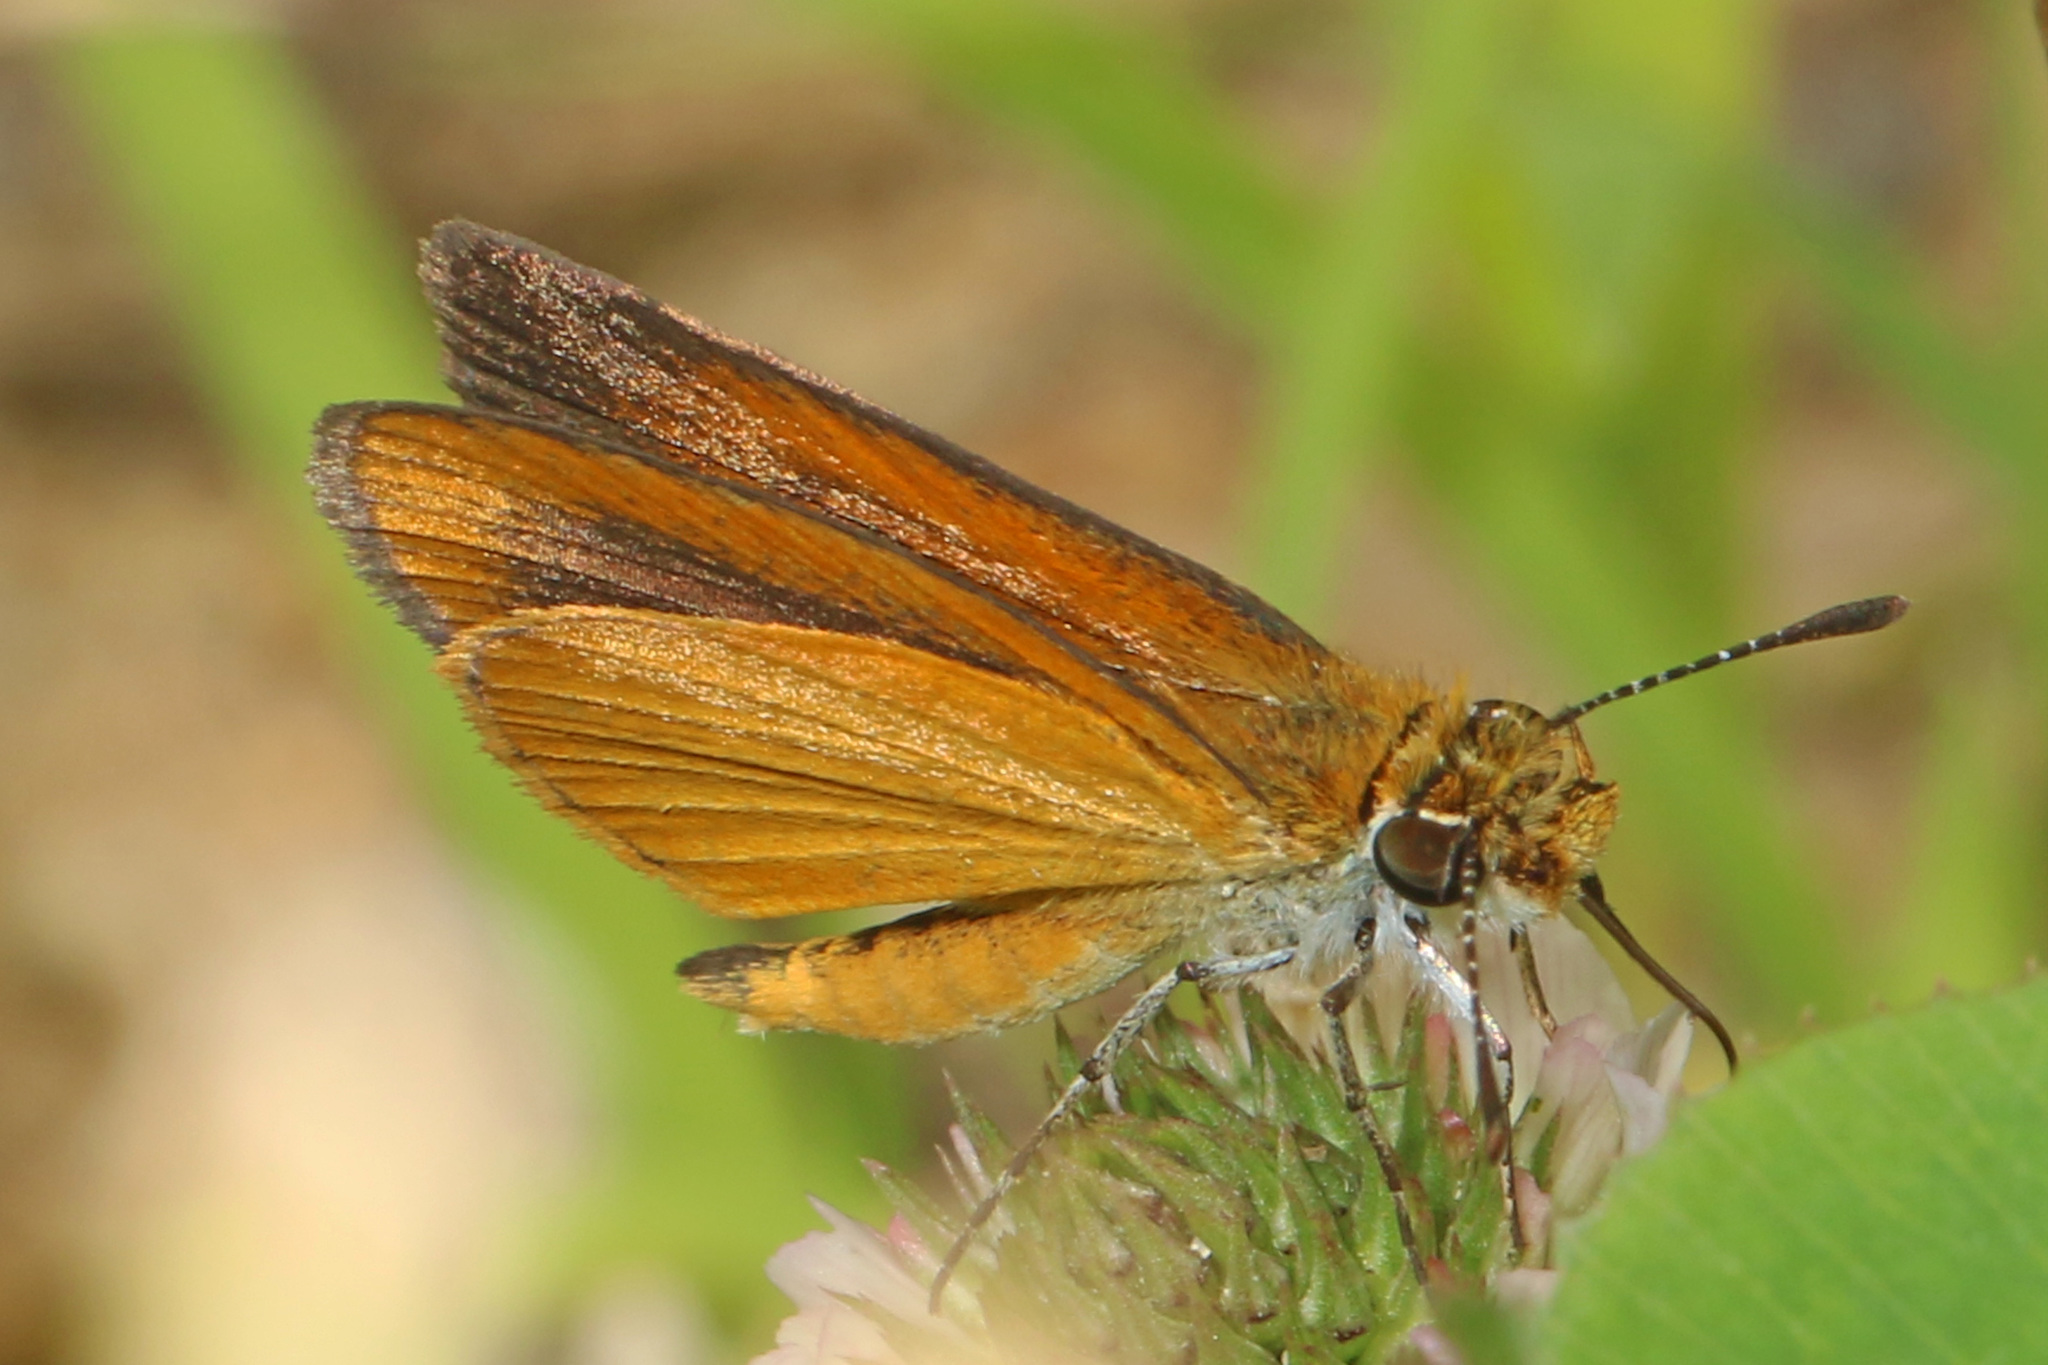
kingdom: Animalia
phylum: Arthropoda
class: Insecta
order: Lepidoptera
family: Hesperiidae
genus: Ancyloxypha
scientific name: Ancyloxypha numitor
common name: Least skipper
